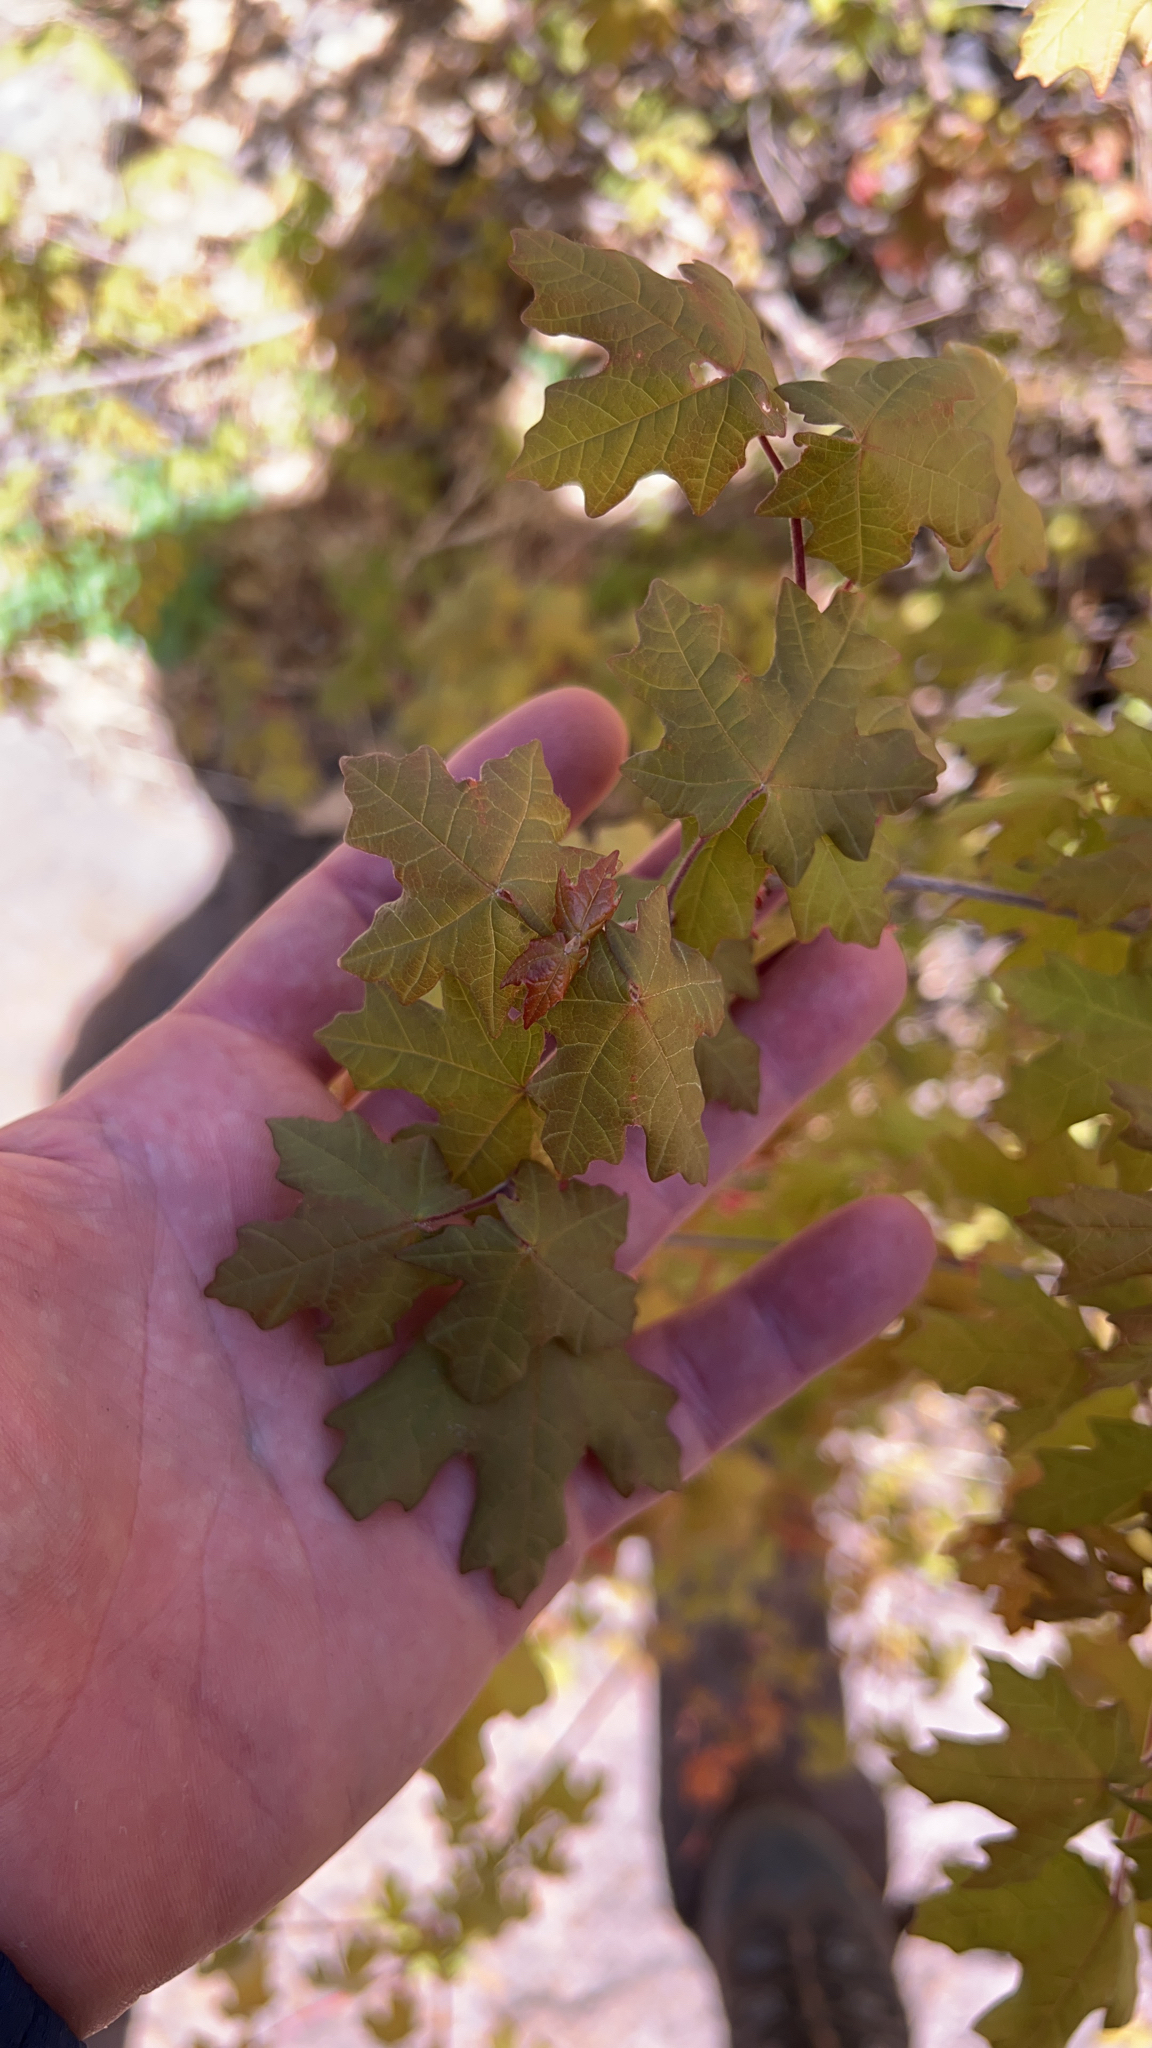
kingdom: Plantae
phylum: Tracheophyta
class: Magnoliopsida
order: Sapindales
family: Sapindaceae
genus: Acer
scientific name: Acer grandidentatum
